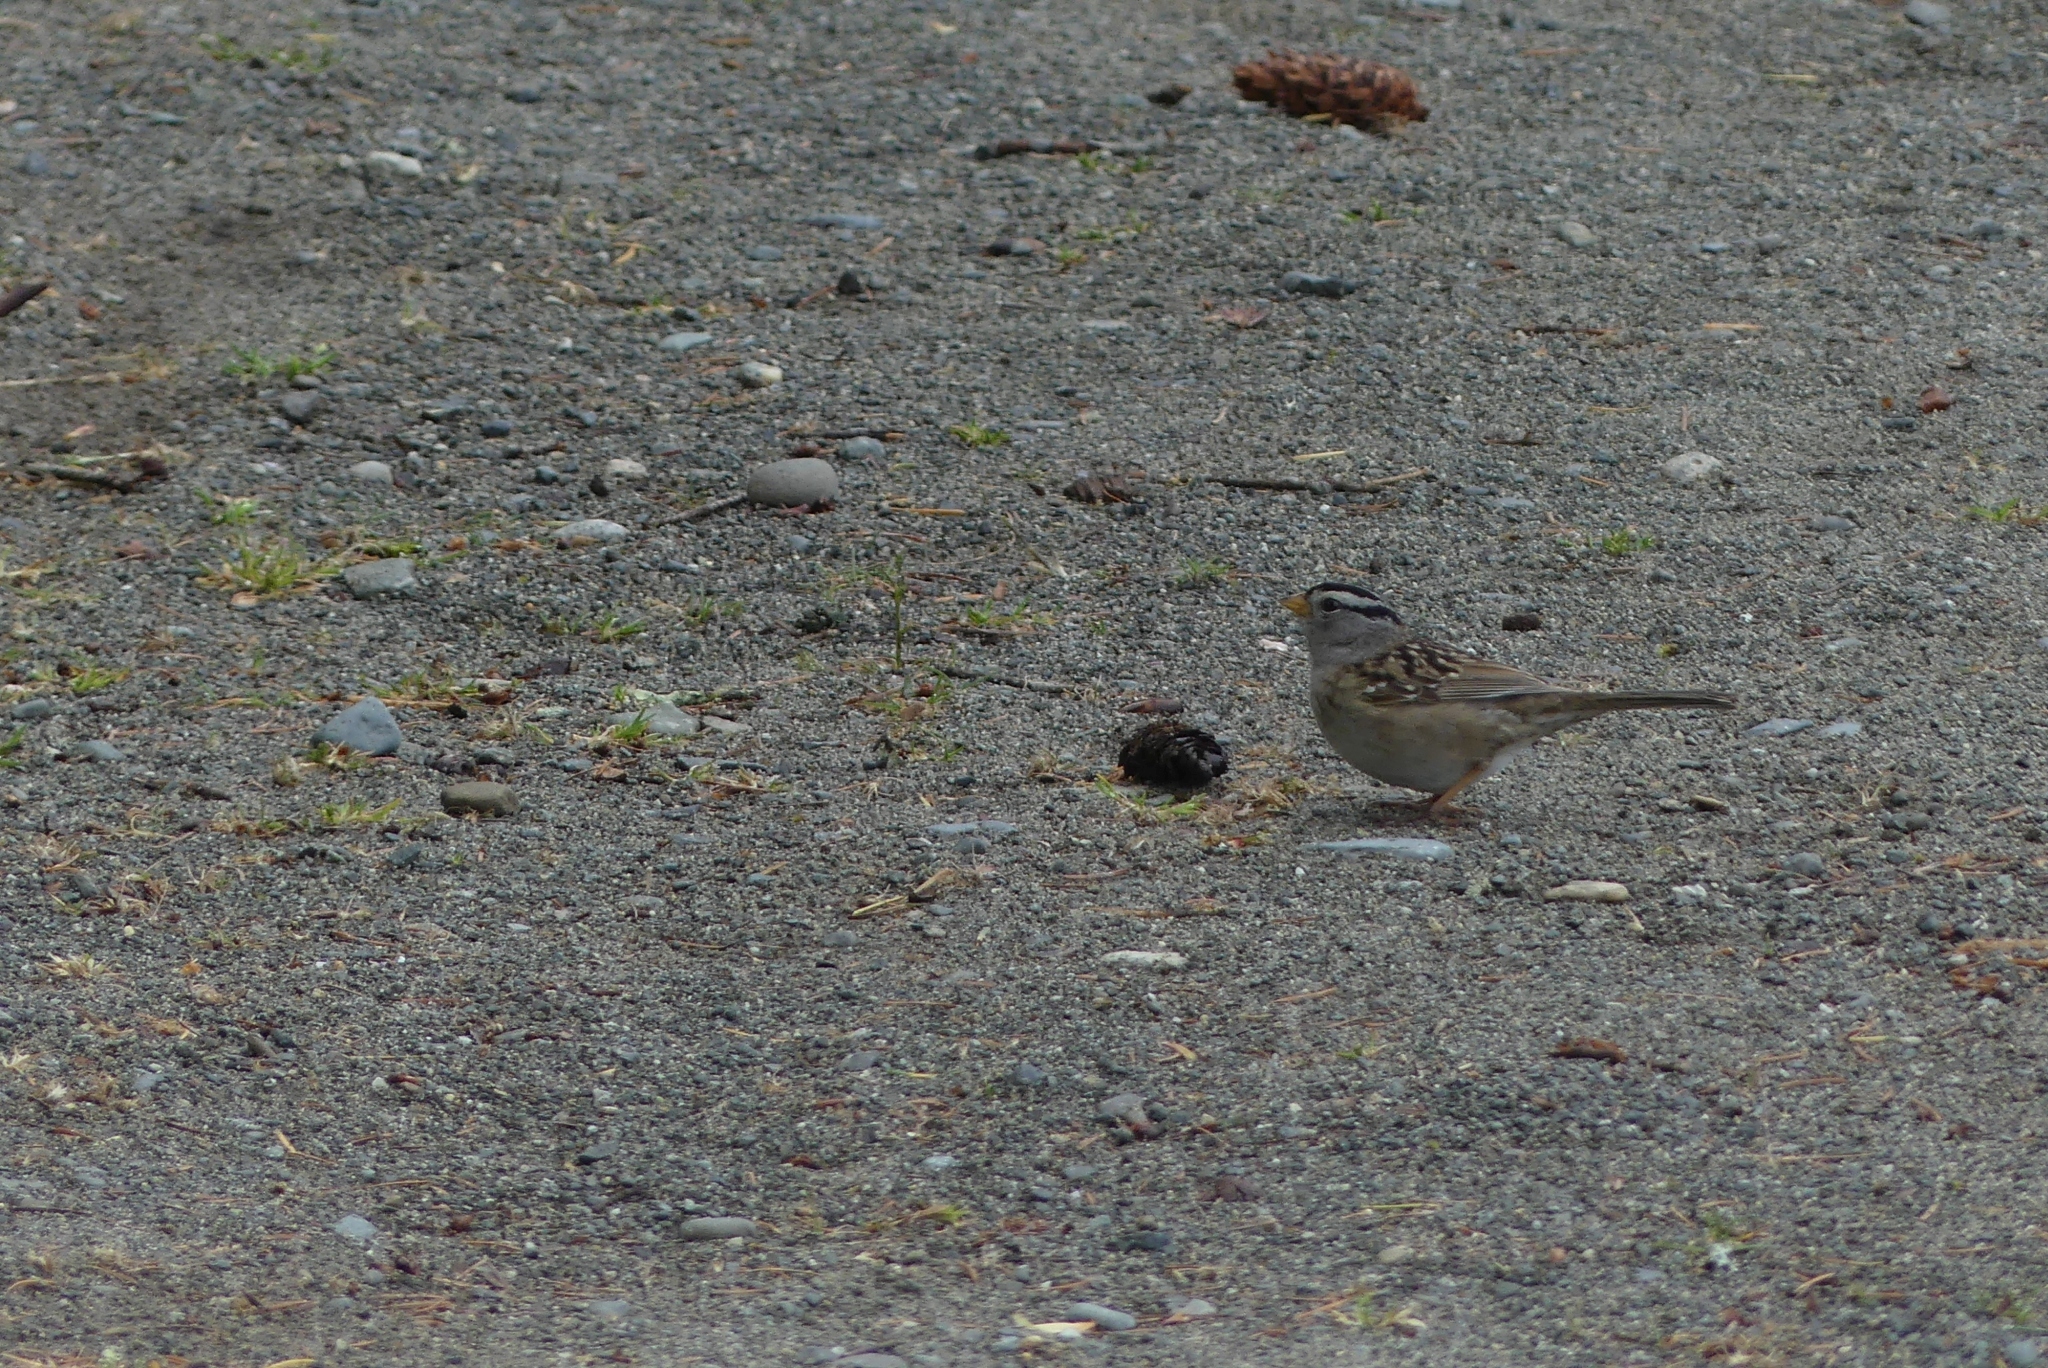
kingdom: Animalia
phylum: Chordata
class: Aves
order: Passeriformes
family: Passerellidae
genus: Zonotrichia
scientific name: Zonotrichia leucophrys
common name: White-crowned sparrow
